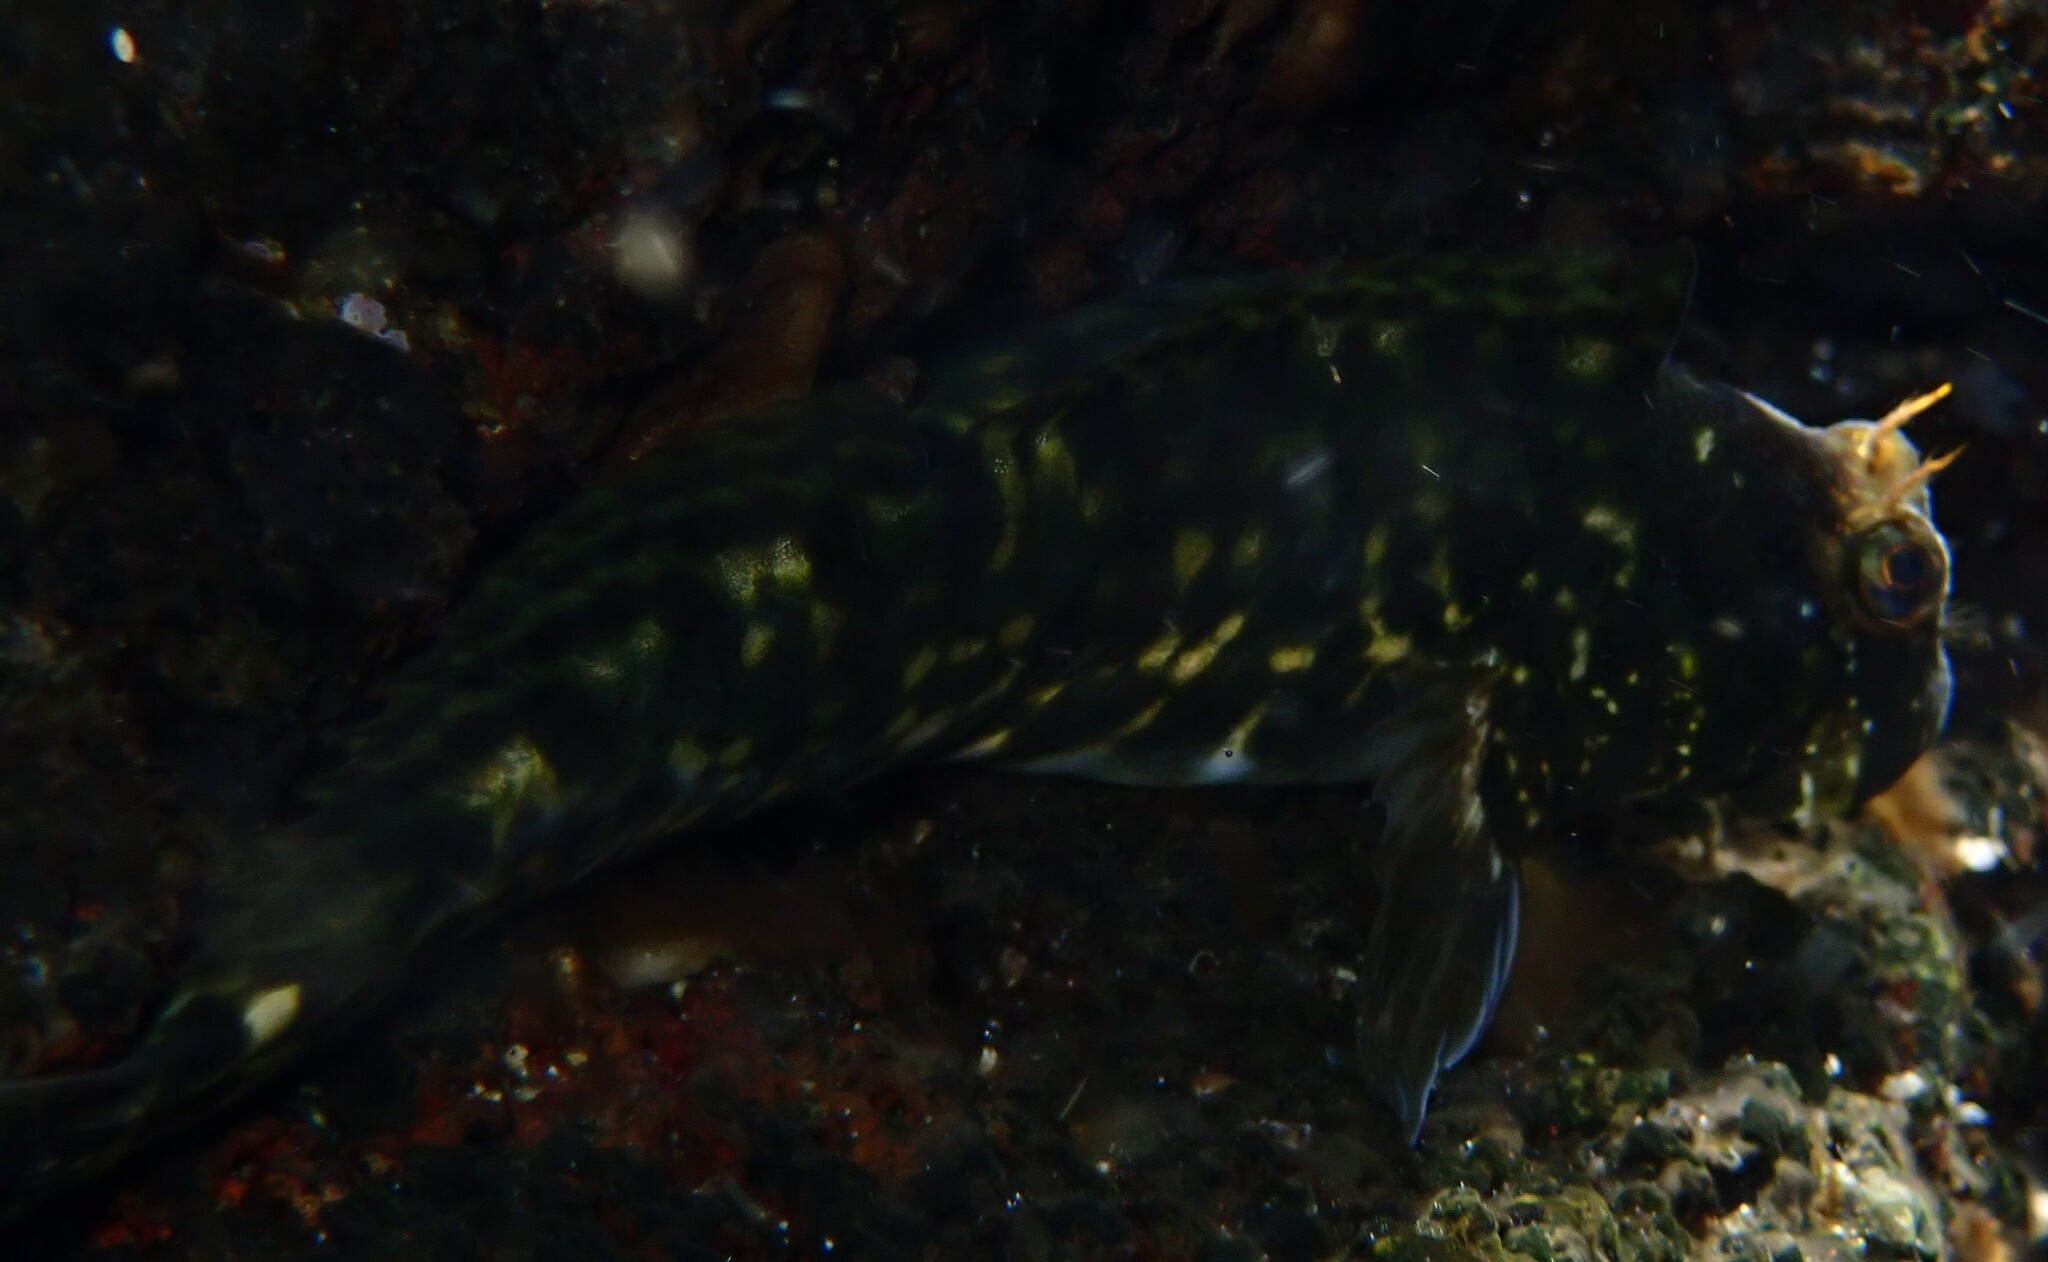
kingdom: Animalia
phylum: Chordata
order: Perciformes
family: Blenniidae
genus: Entomacrodus
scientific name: Entomacrodus marmoratus
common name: Marbled blenny
